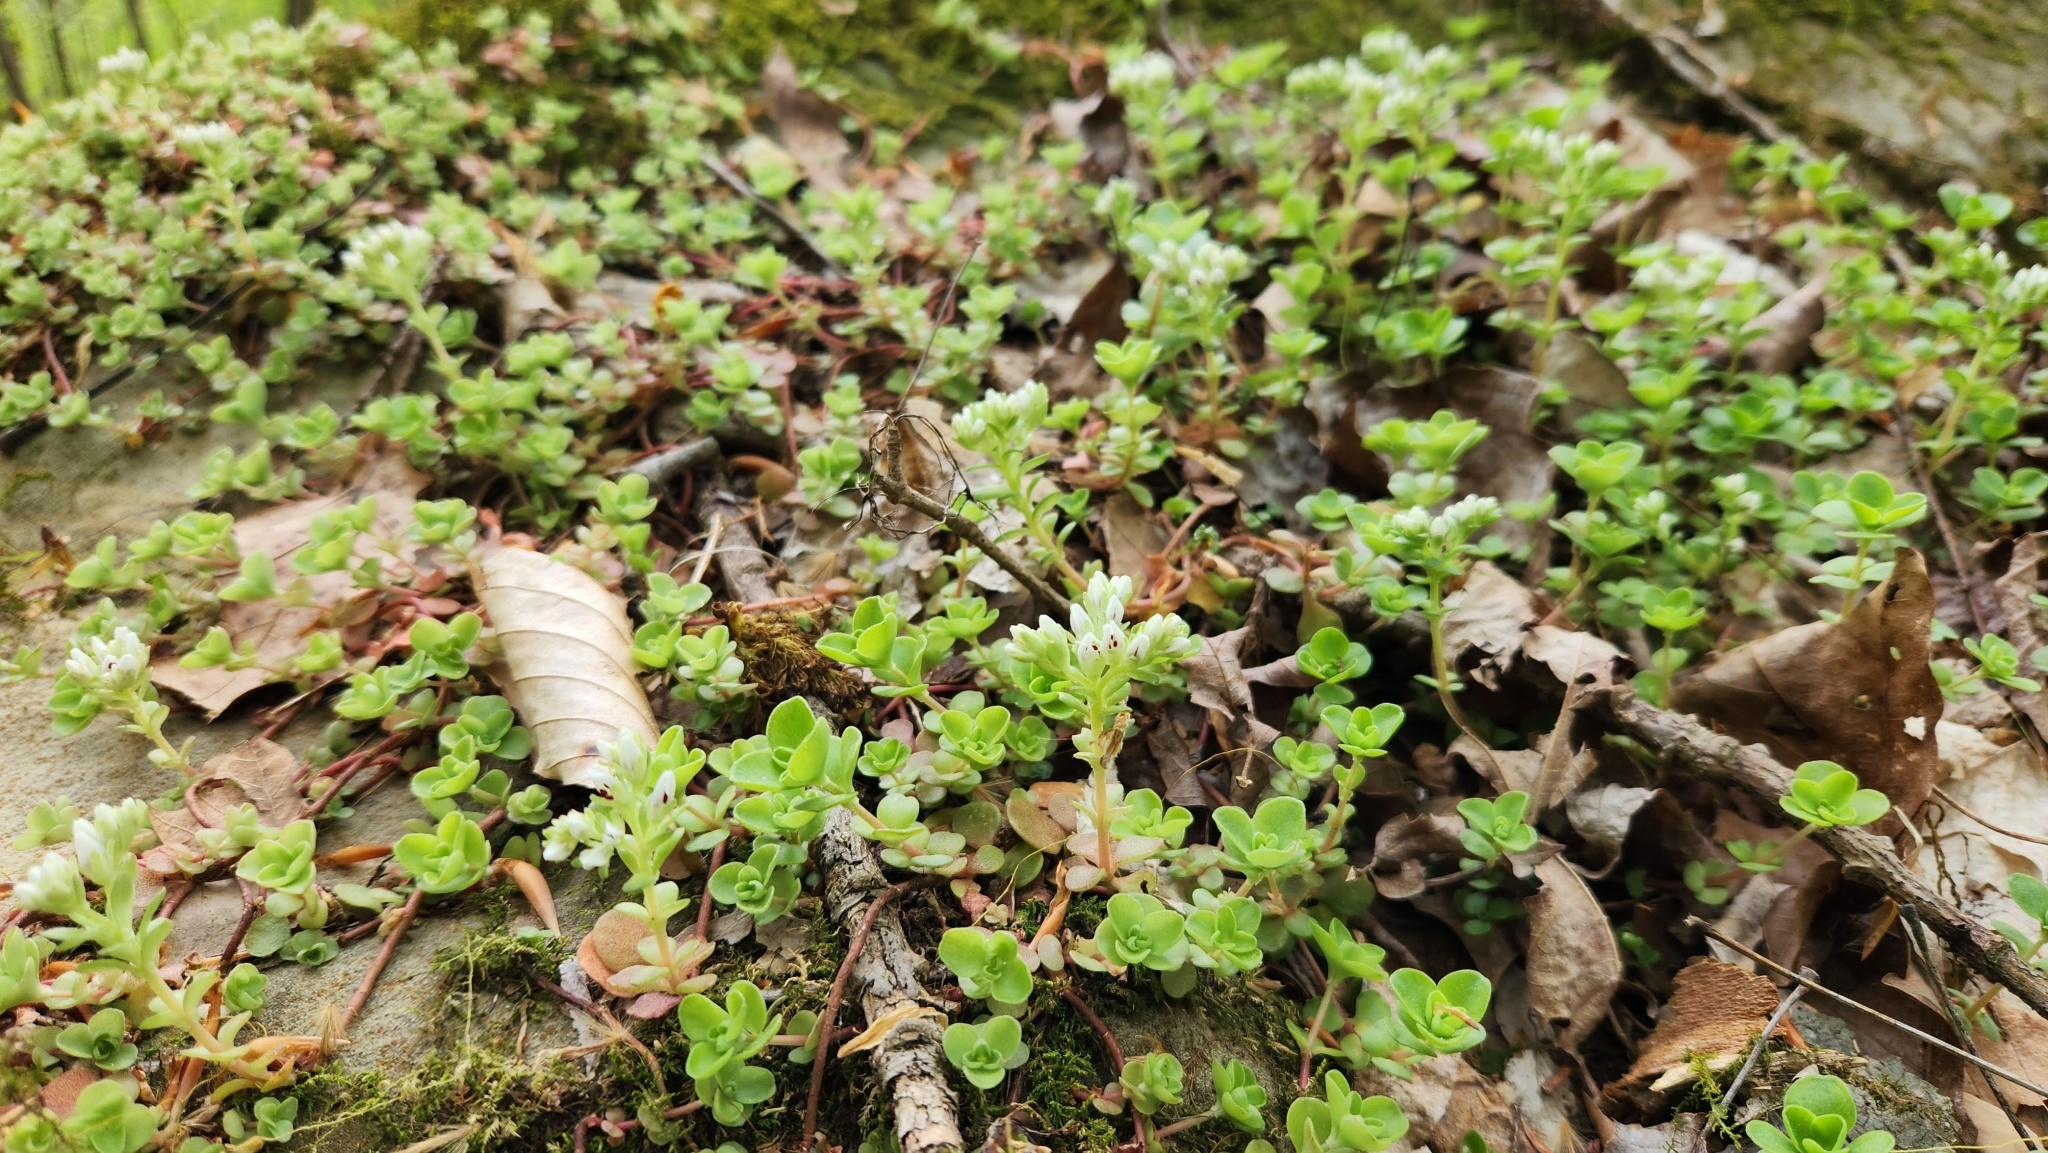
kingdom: Plantae
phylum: Tracheophyta
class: Magnoliopsida
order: Saxifragales
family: Crassulaceae
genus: Sedum
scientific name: Sedum ternatum
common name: Wild stonecrop
